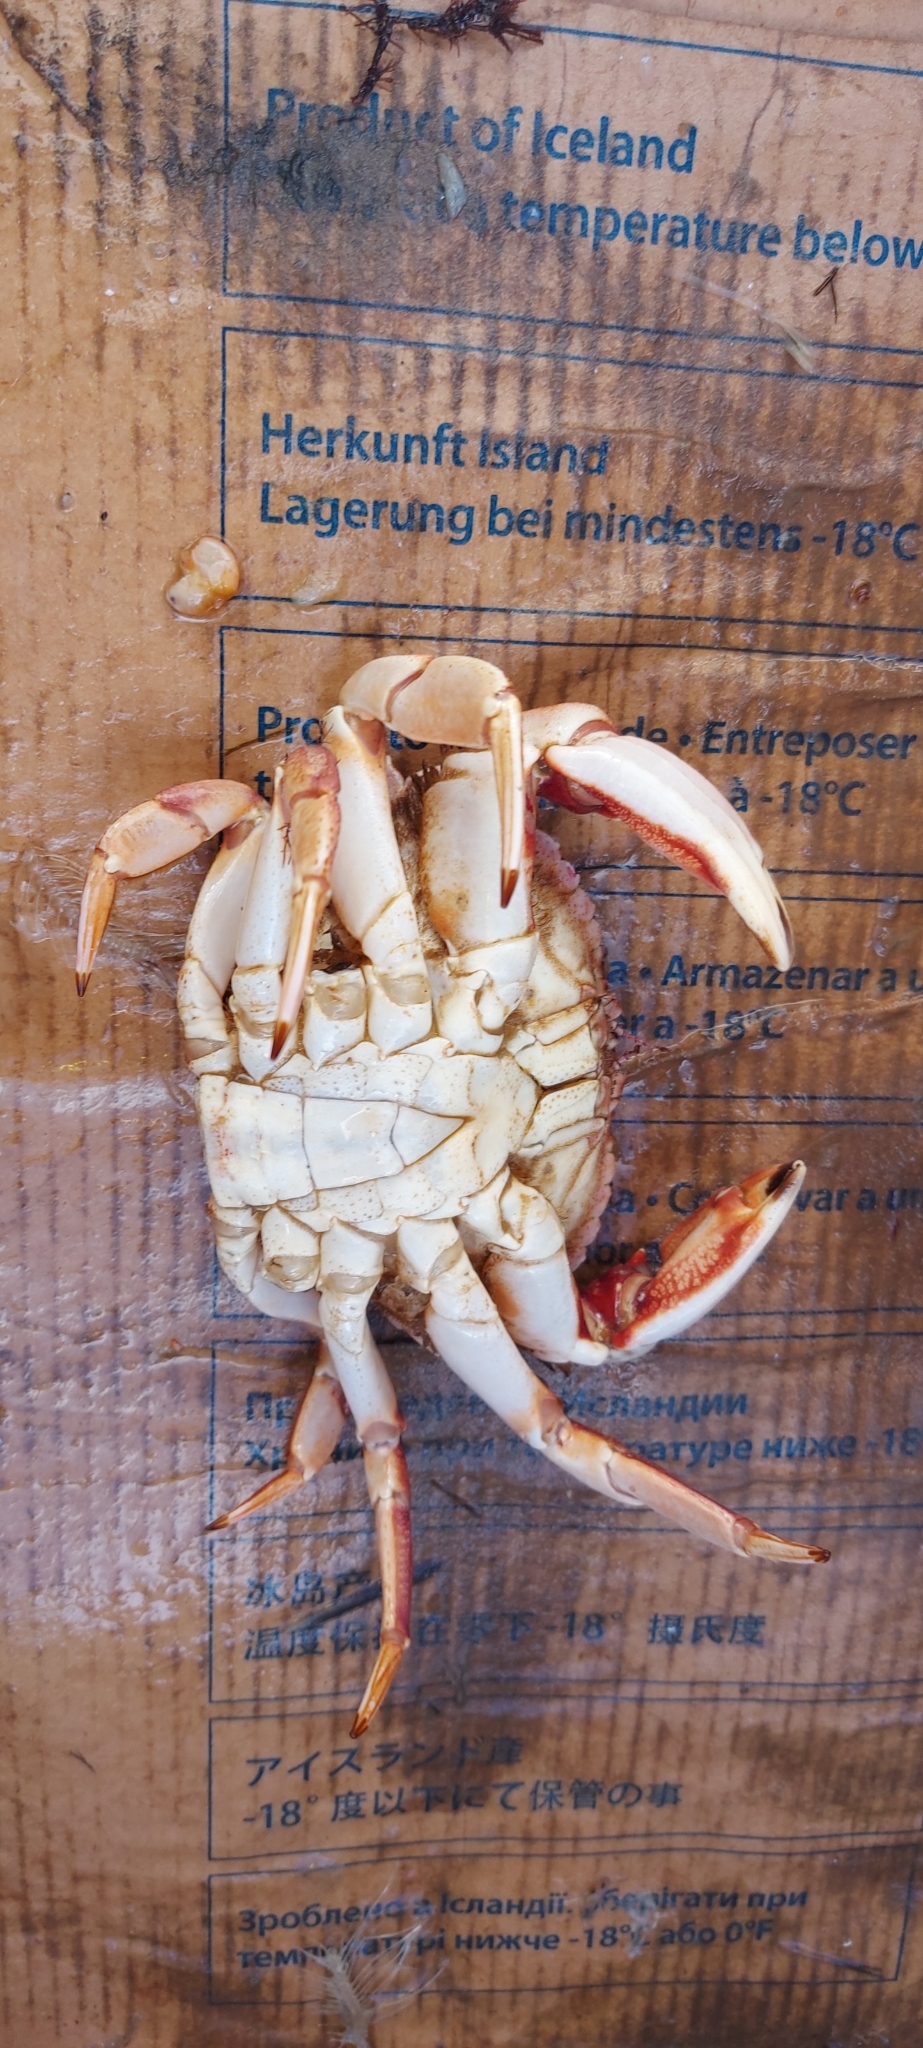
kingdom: Animalia
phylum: Arthropoda
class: Malacostraca
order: Decapoda
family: Cancridae
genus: Cancer
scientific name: Cancer irroratus
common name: Atlantic rock crab
